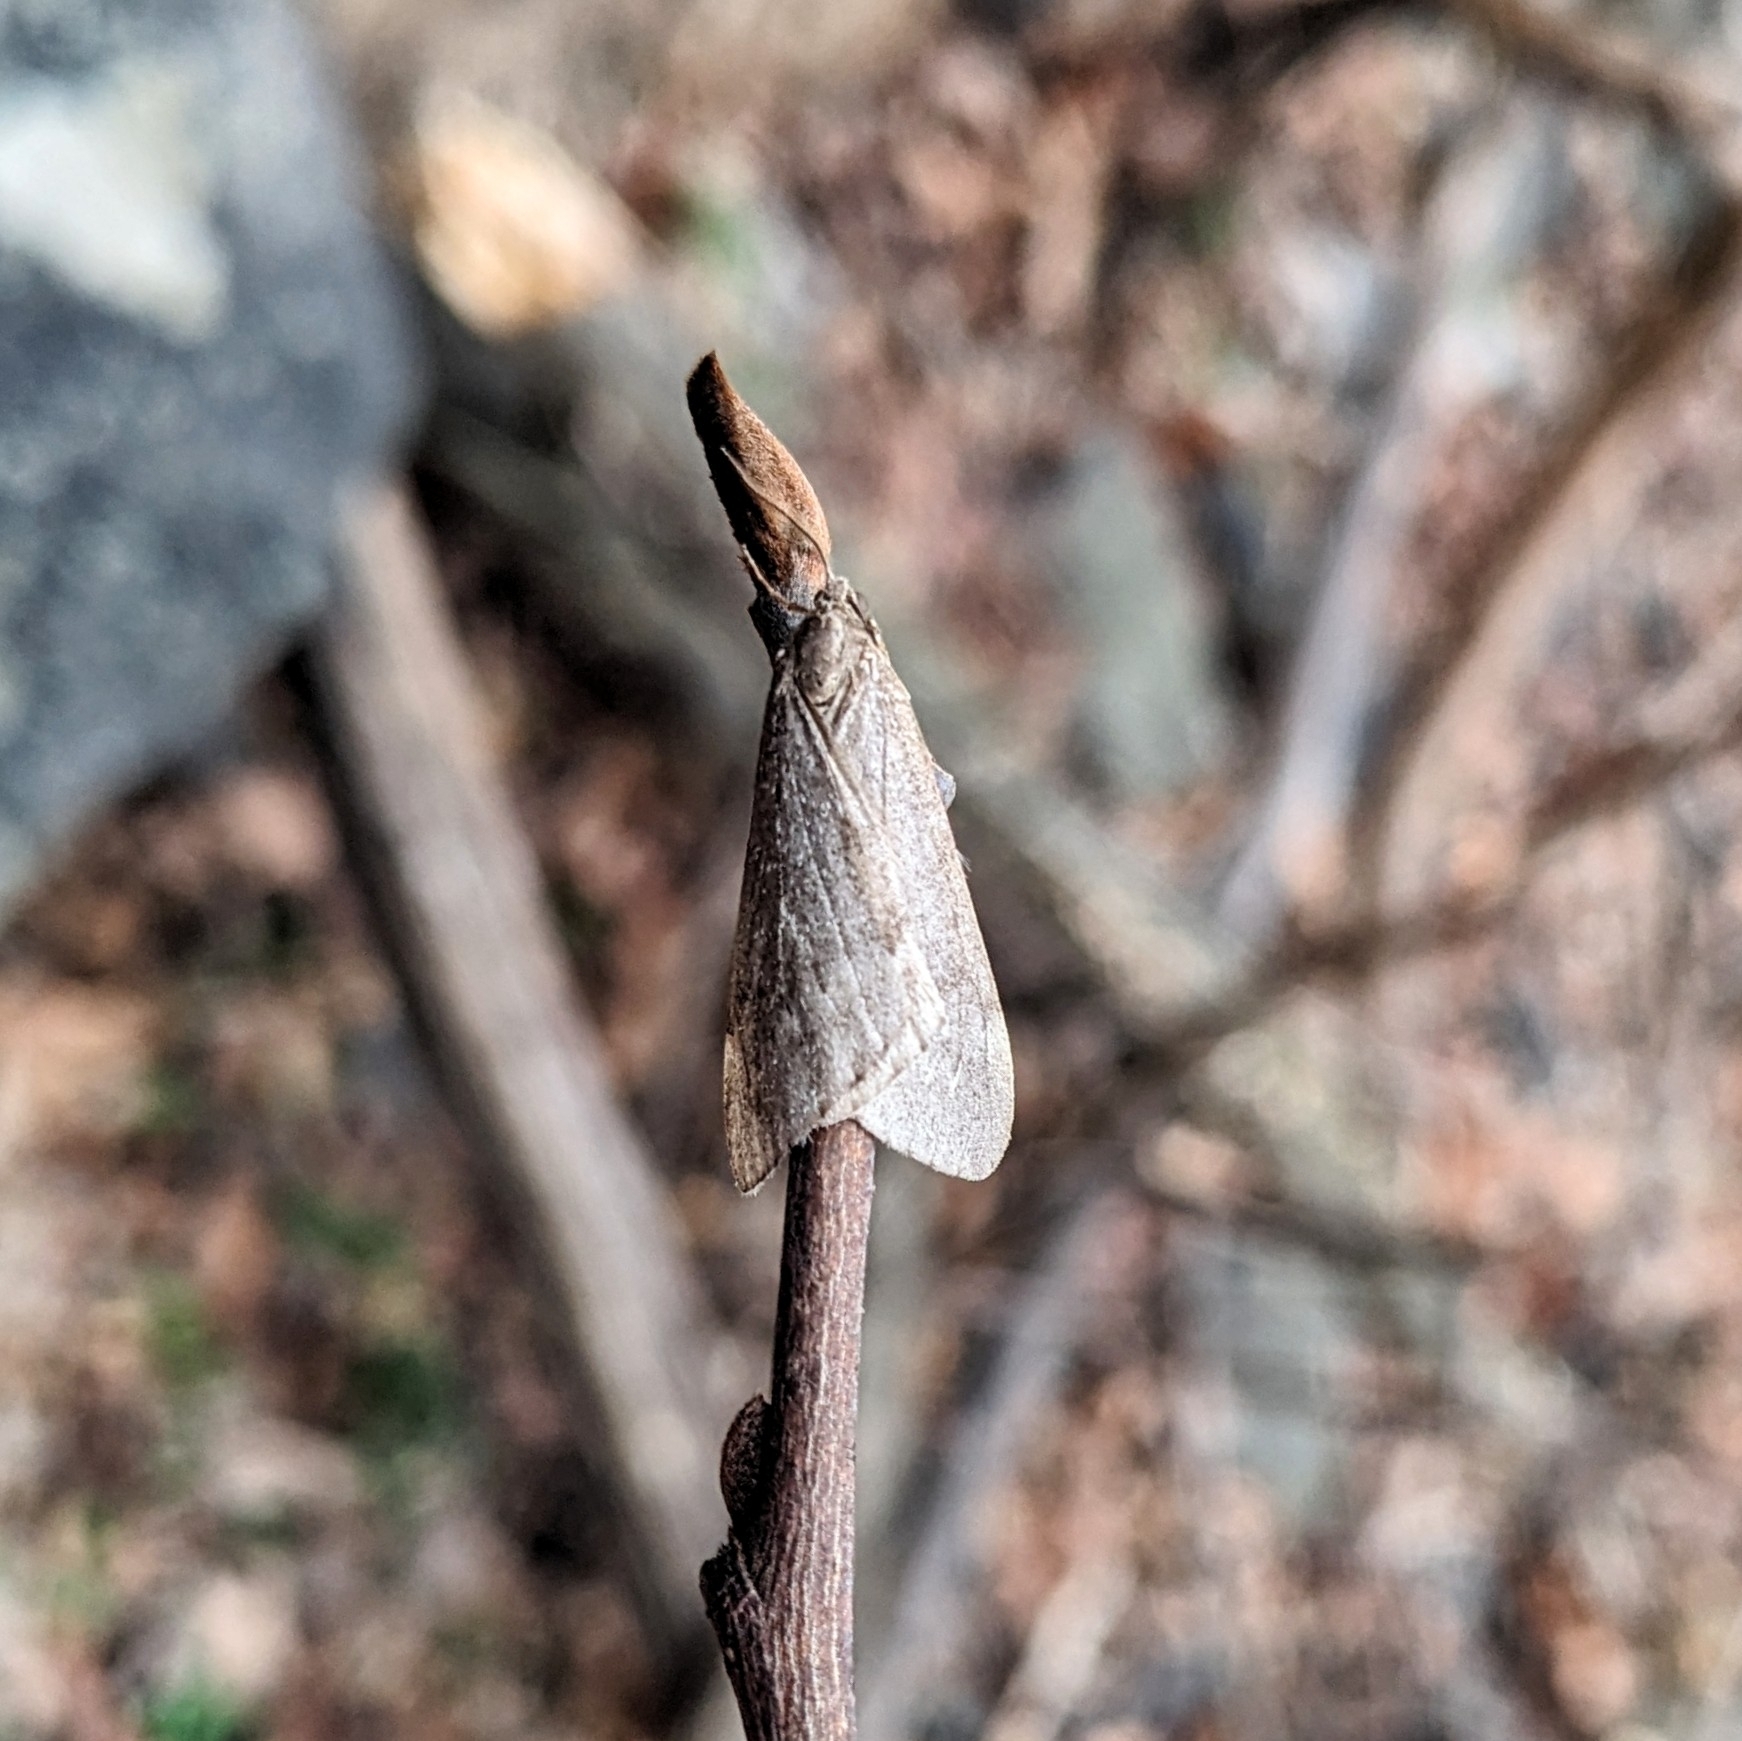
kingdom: Animalia
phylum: Arthropoda
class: Insecta
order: Lepidoptera
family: Geometridae
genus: Alsophila
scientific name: Alsophila pometaria
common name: Fall cankerworm
